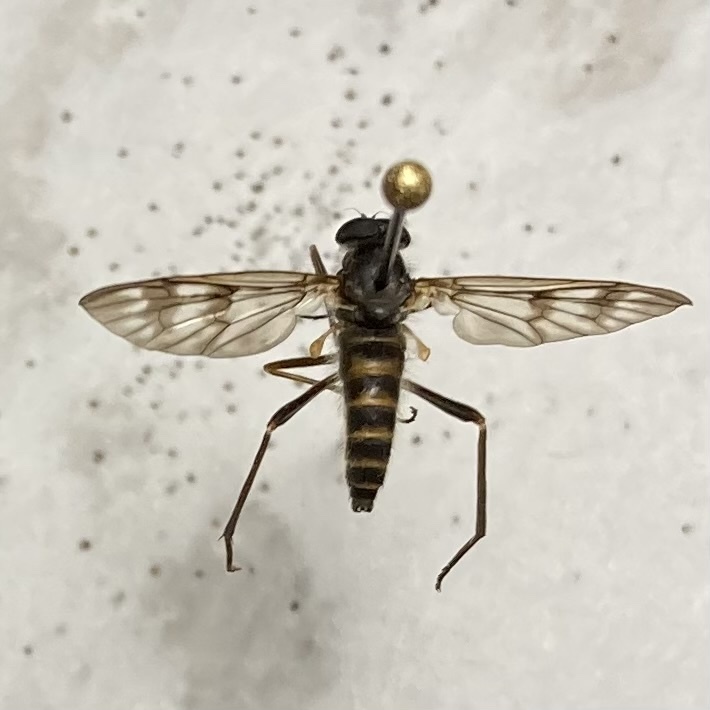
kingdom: Animalia
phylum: Arthropoda
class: Insecta
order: Diptera
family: Rhagionidae
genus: Rhagio
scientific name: Rhagio mystaceus
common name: Common snipe fly
